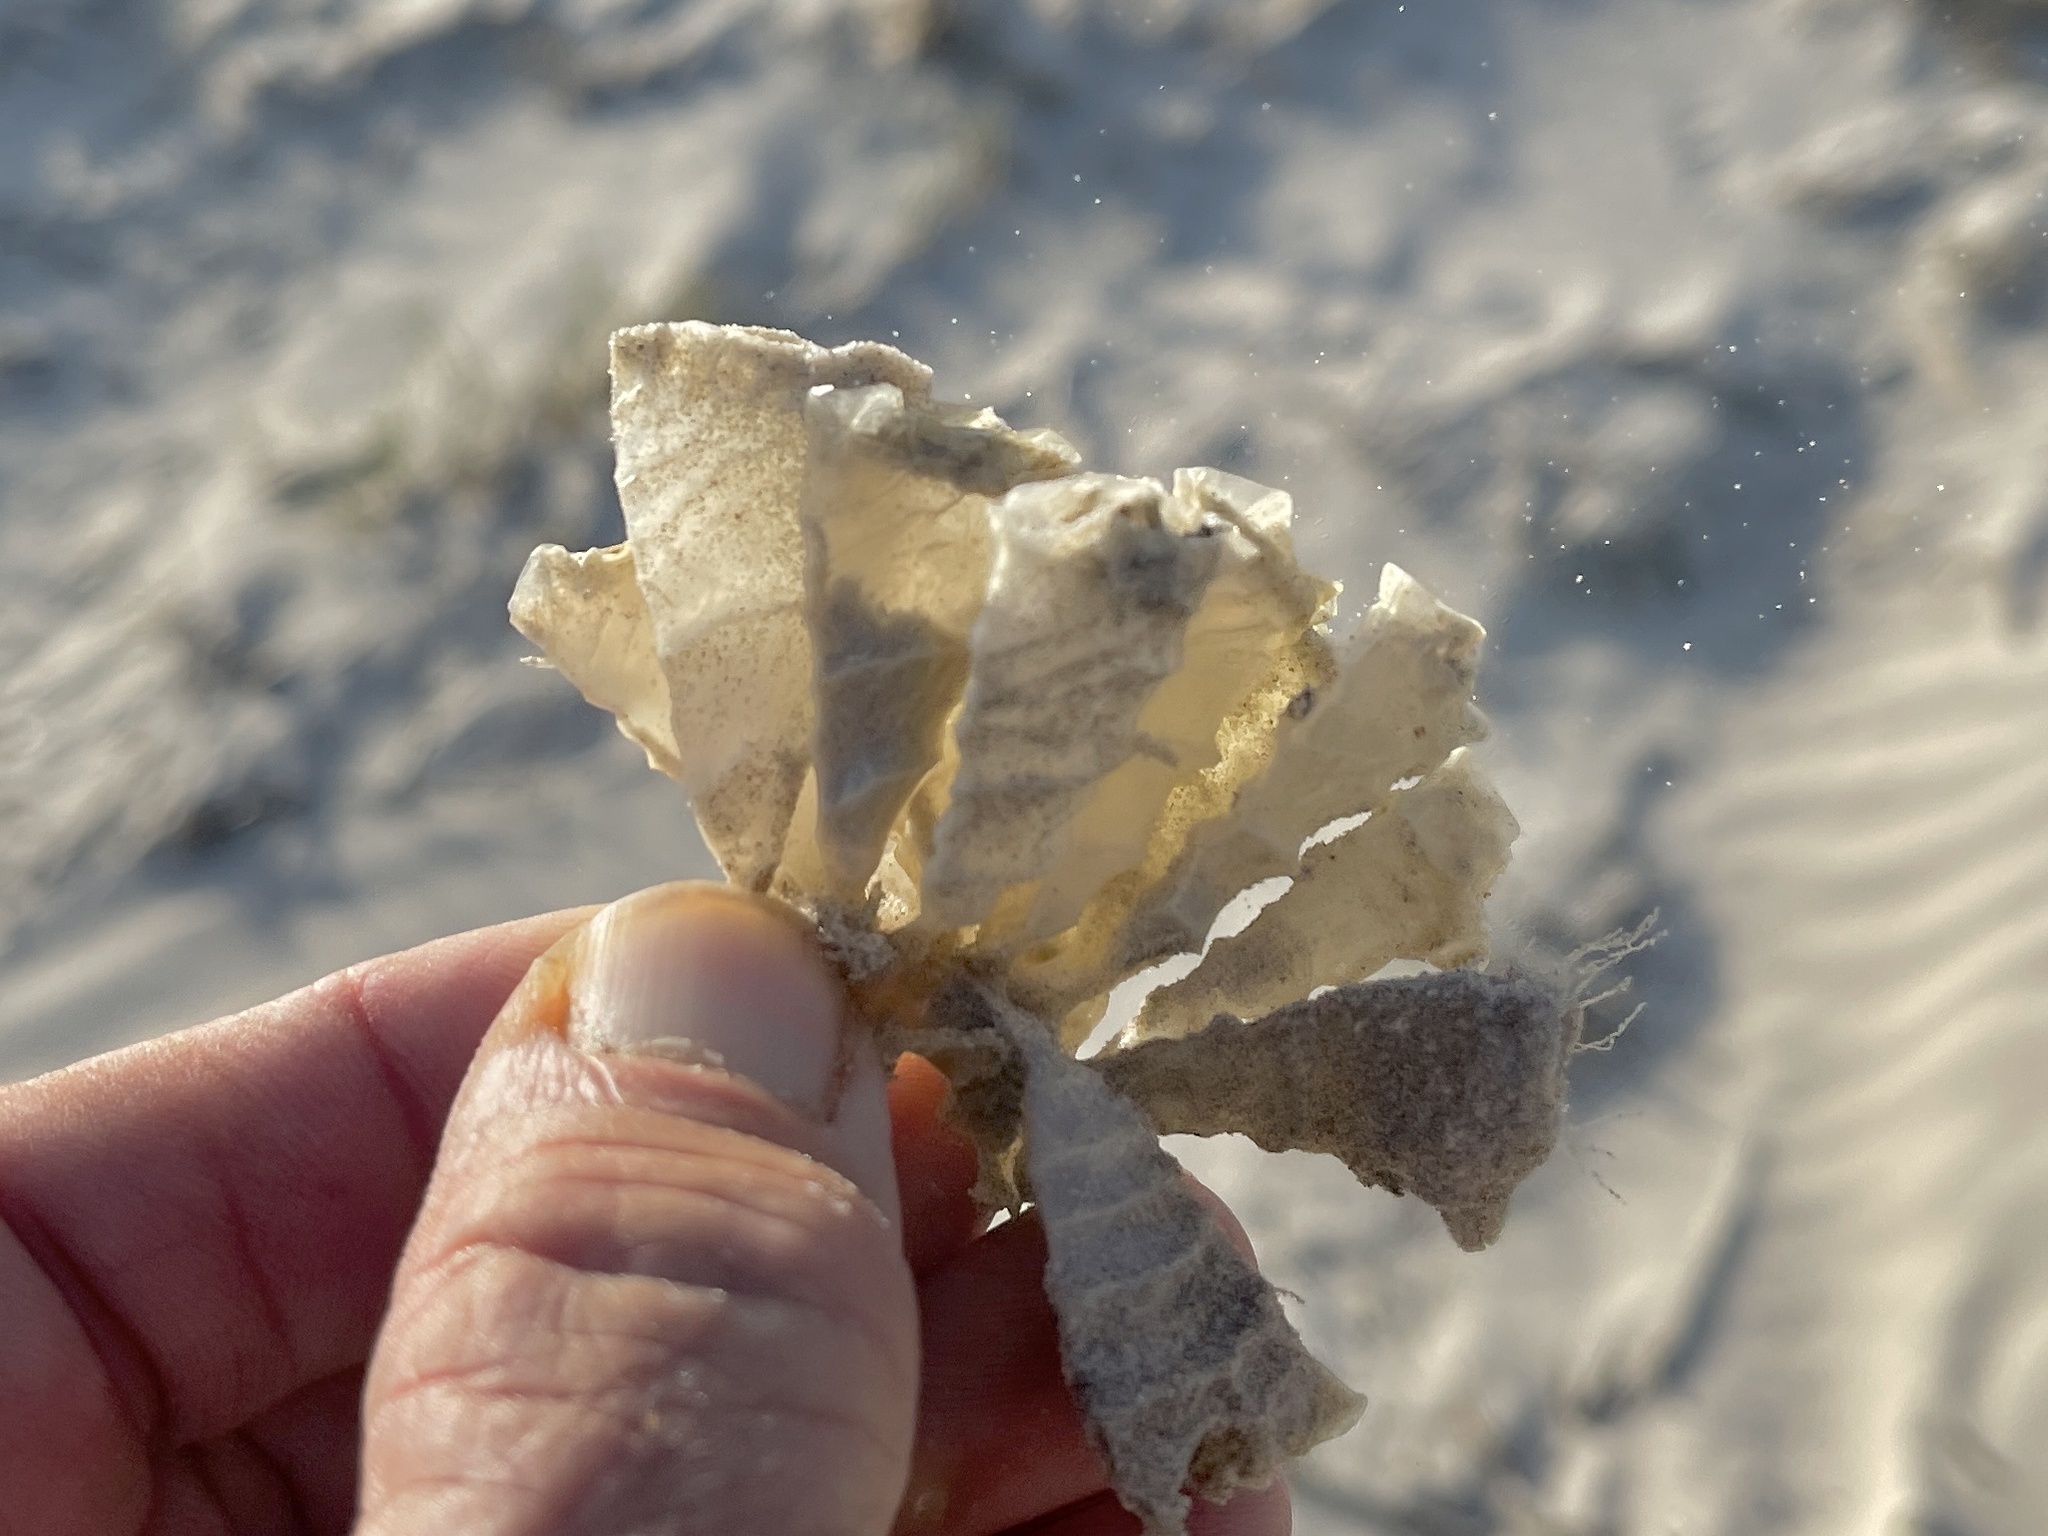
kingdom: Animalia
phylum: Mollusca
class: Gastropoda
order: Neogastropoda
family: Fasciolariidae
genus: Triplofusus
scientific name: Triplofusus giganteus
